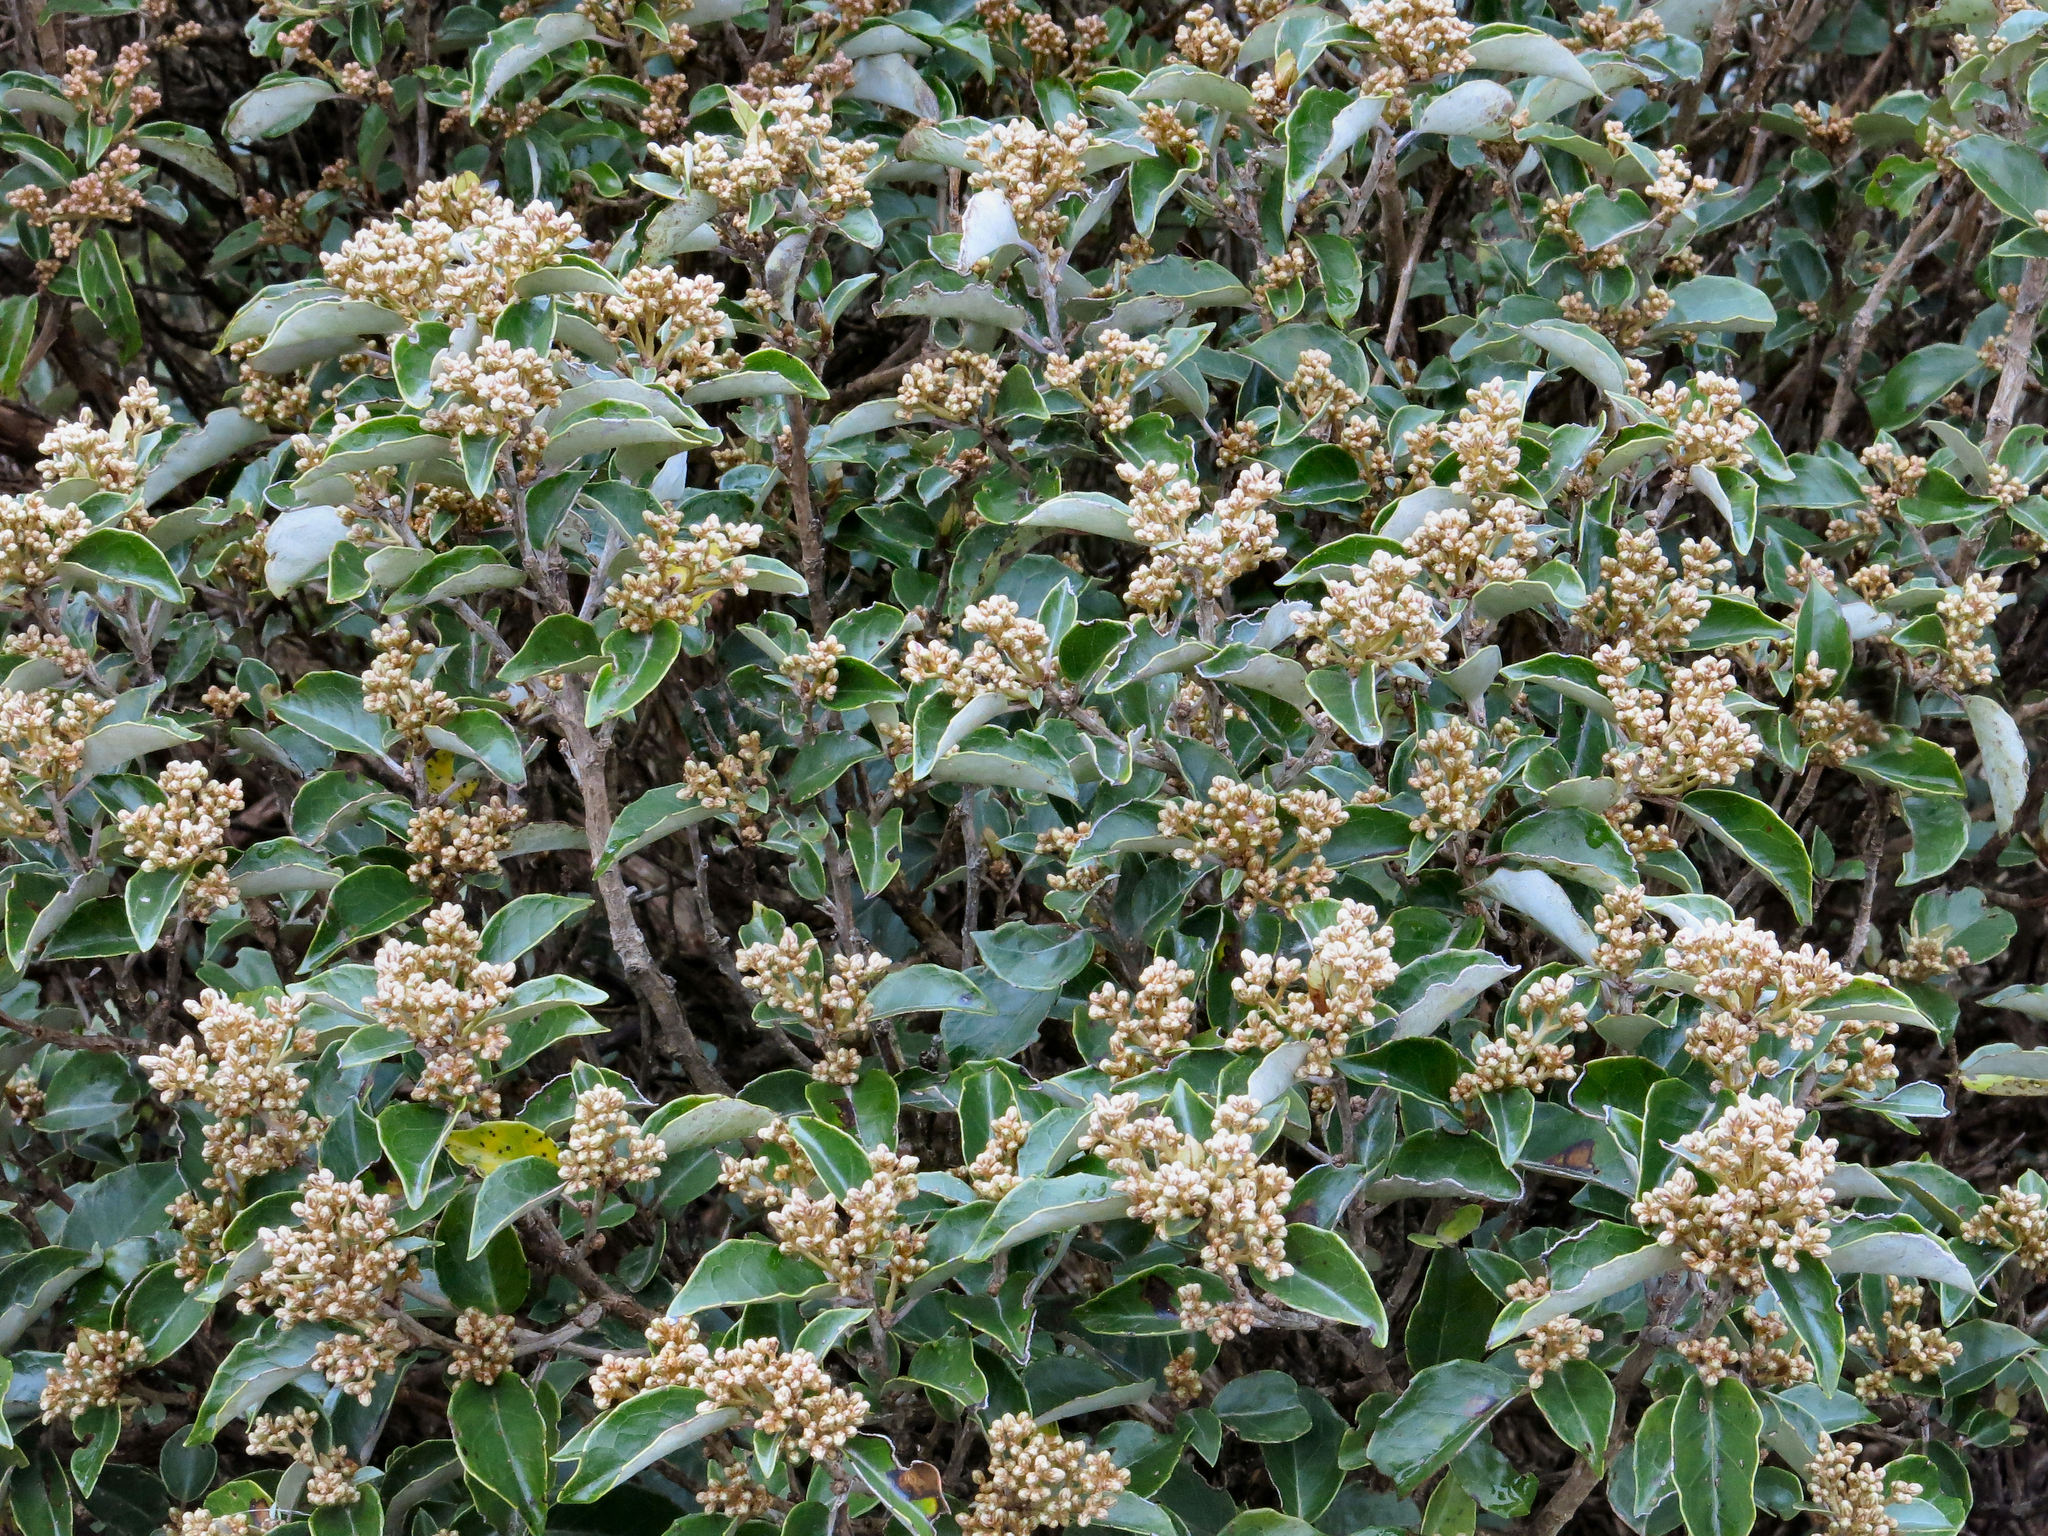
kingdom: Plantae
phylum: Tracheophyta
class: Magnoliopsida
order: Asterales
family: Asteraceae
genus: Olearia
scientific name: Olearia arborescens
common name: Glossy tree daisy
